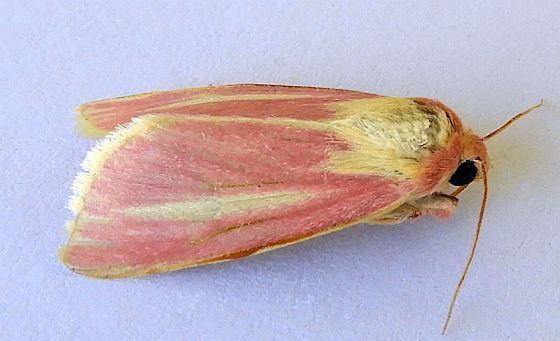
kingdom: Animalia
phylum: Arthropoda
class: Insecta
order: Lepidoptera
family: Noctuidae
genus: Heliocheilus
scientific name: Heliocheilus julia
